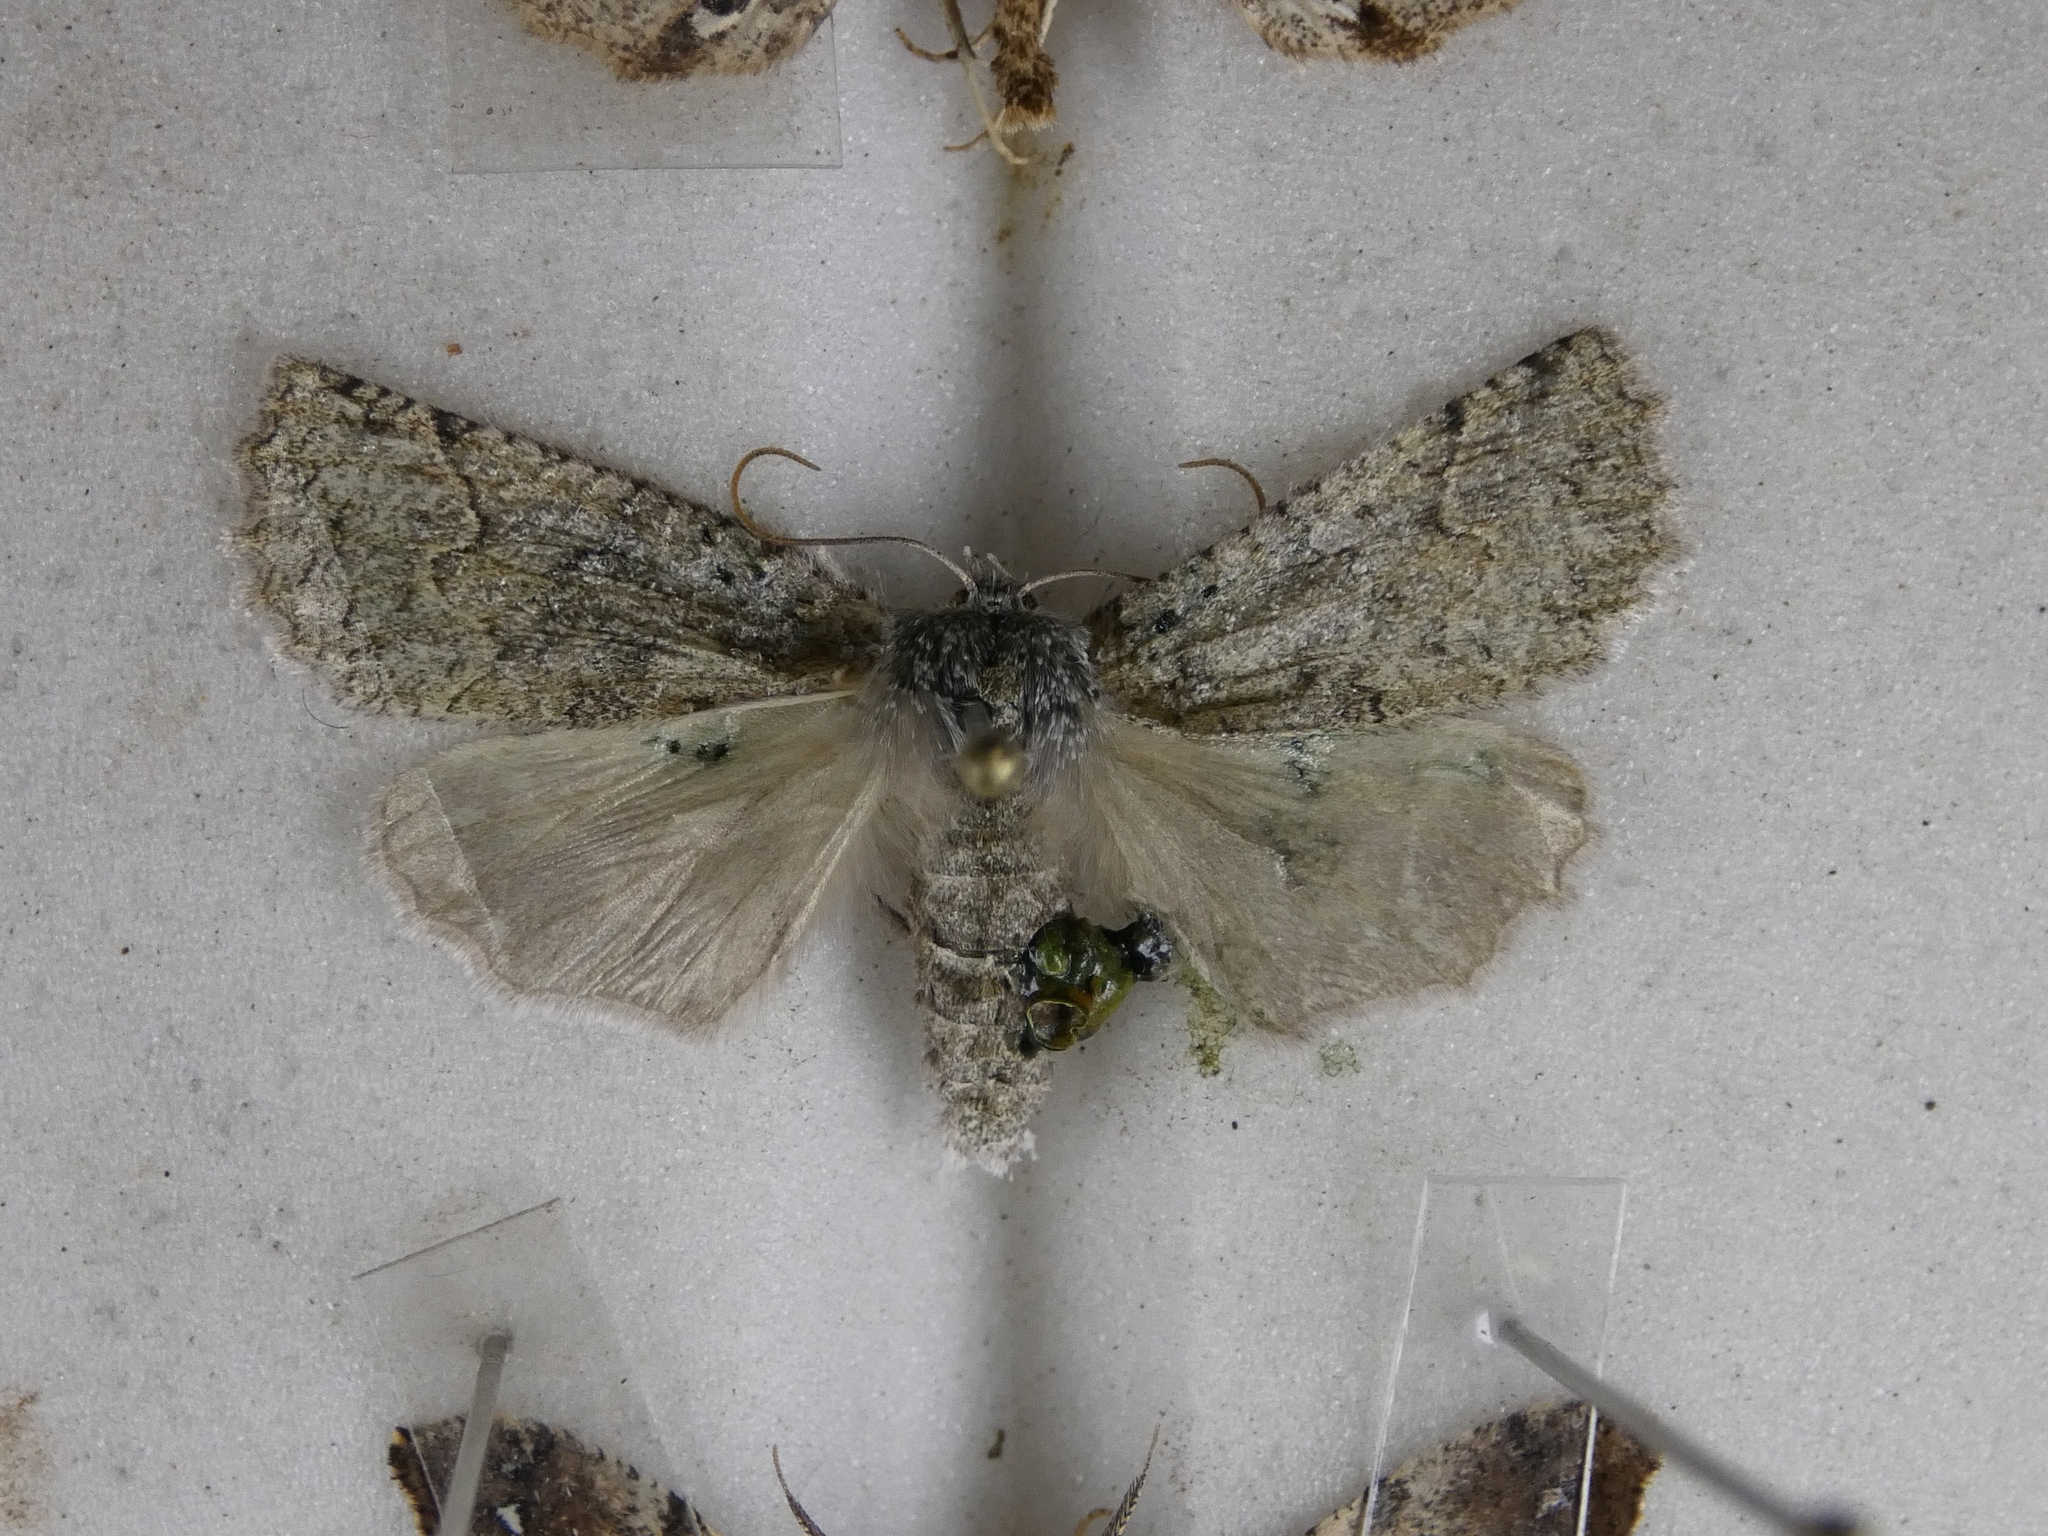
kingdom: Animalia
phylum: Arthropoda
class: Insecta
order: Lepidoptera
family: Geometridae
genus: Declana
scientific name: Declana floccosa
